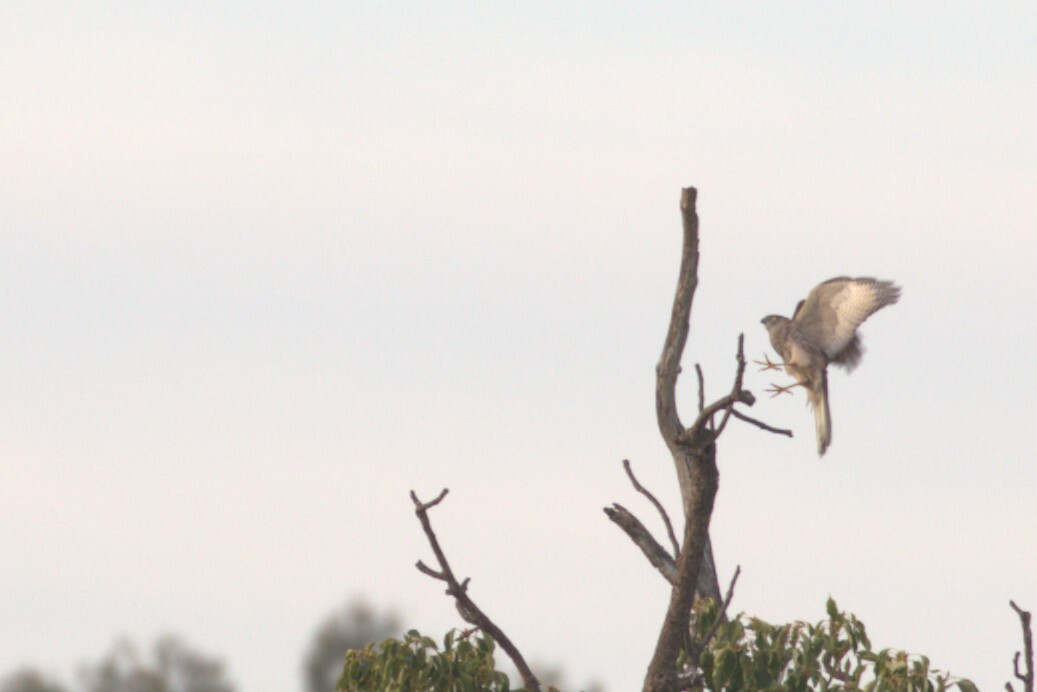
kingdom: Animalia
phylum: Chordata
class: Aves
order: Accipitriformes
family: Accipitridae
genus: Accipiter
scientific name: Accipiter fasciatus
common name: Brown goshawk
